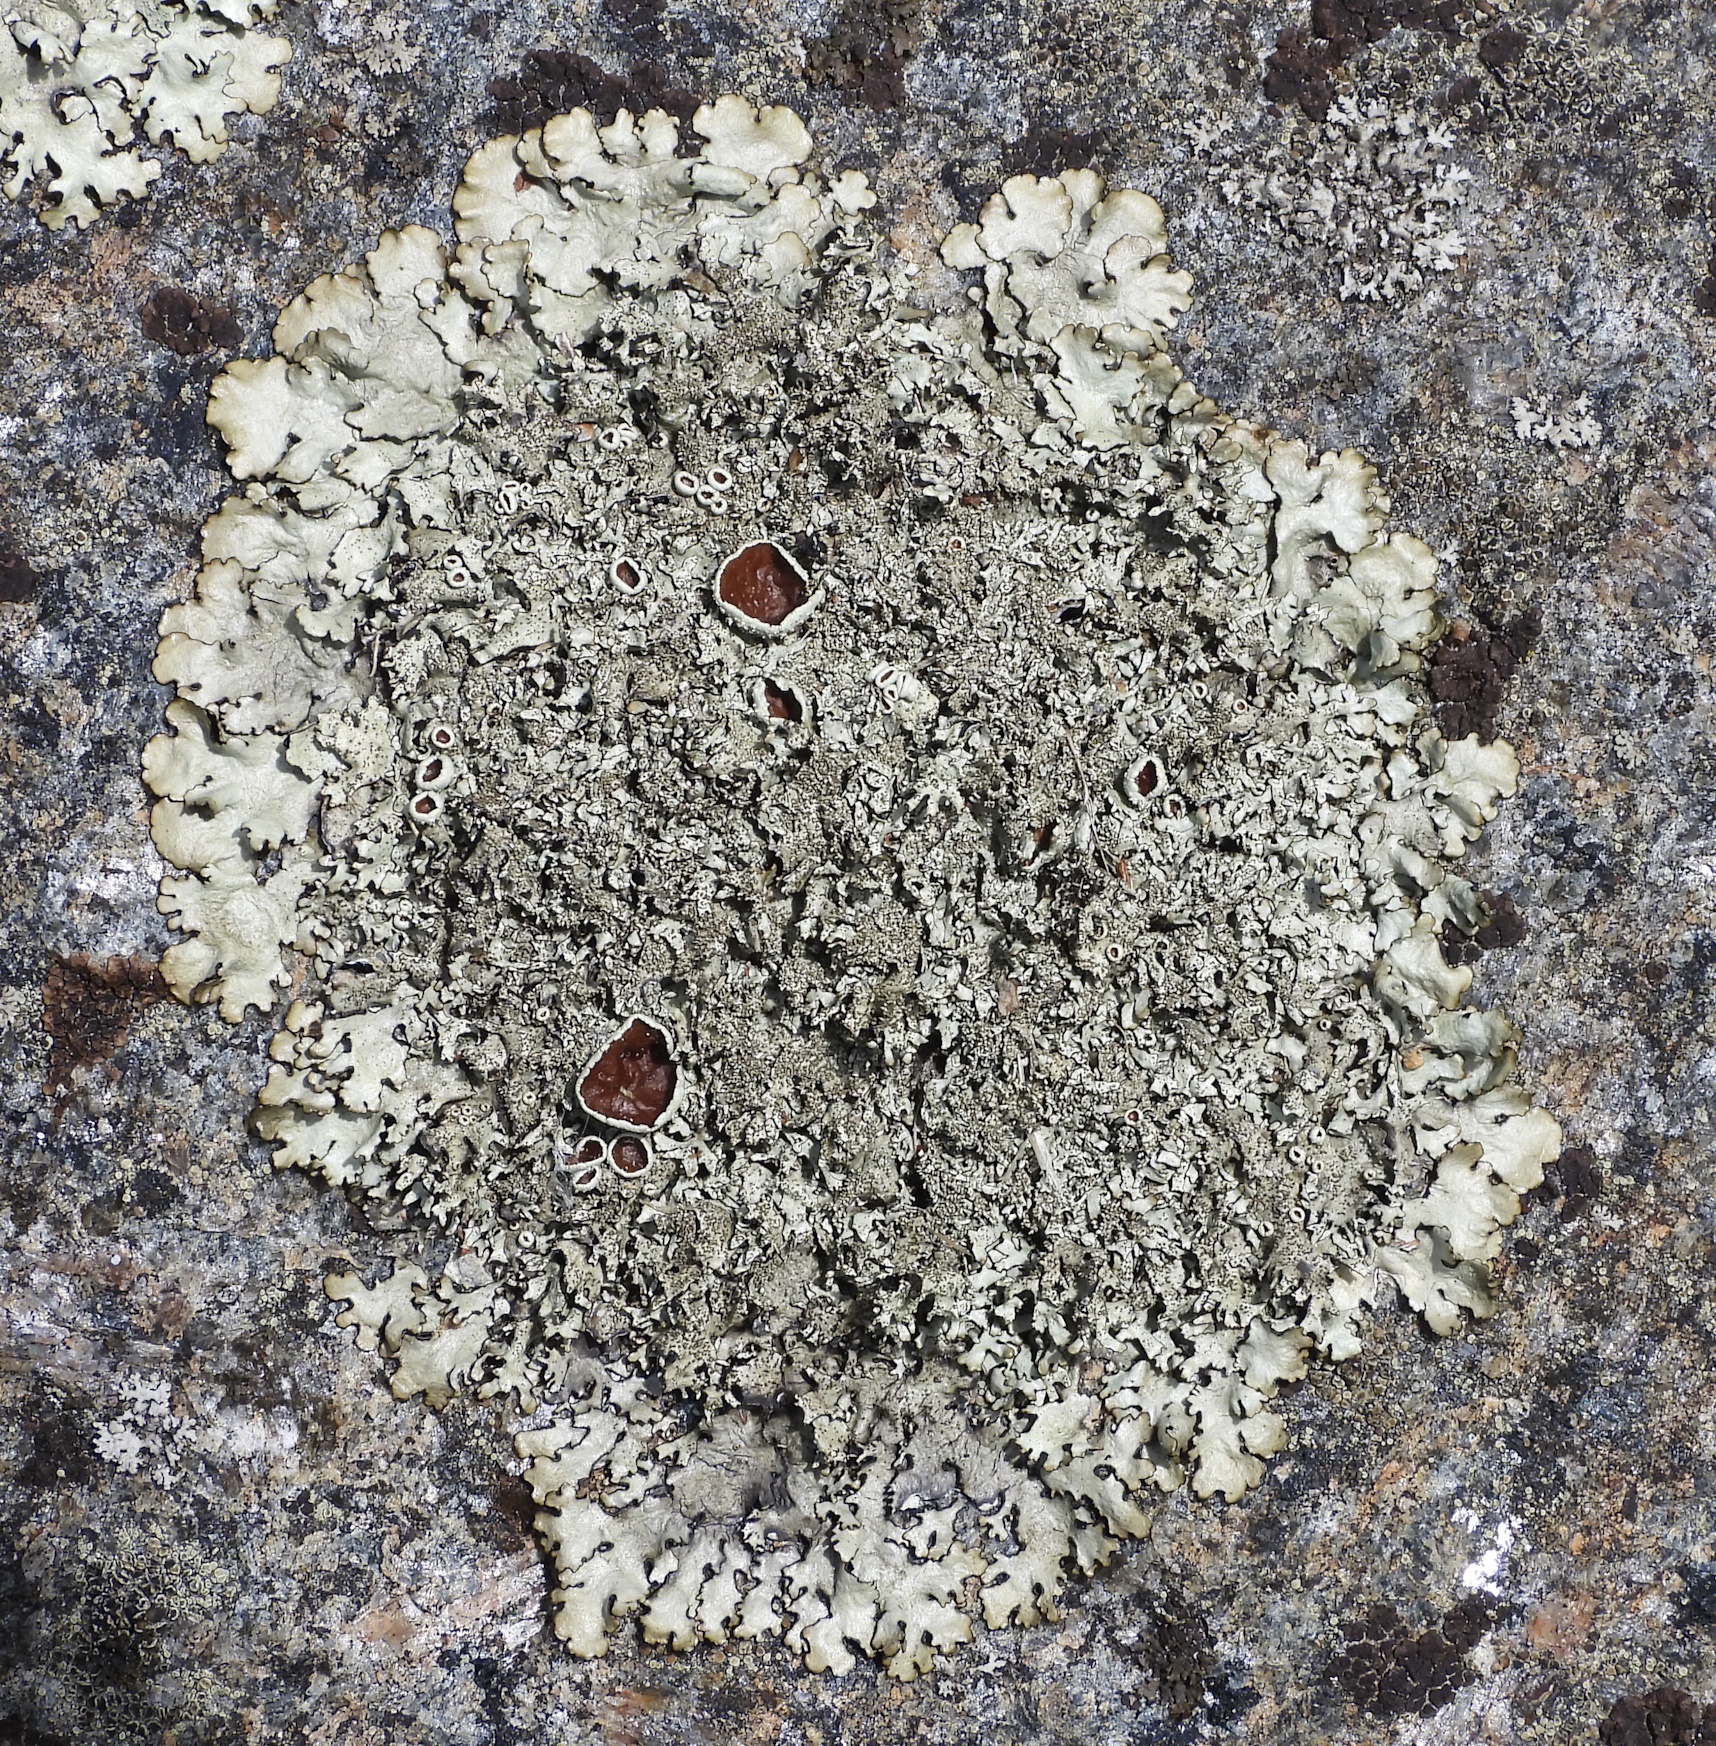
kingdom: Fungi
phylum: Ascomycota
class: Lecanoromycetes
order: Lecanorales
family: Parmeliaceae
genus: Xanthoparmelia
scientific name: Xanthoparmelia conspersa
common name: Peppered rock shield
